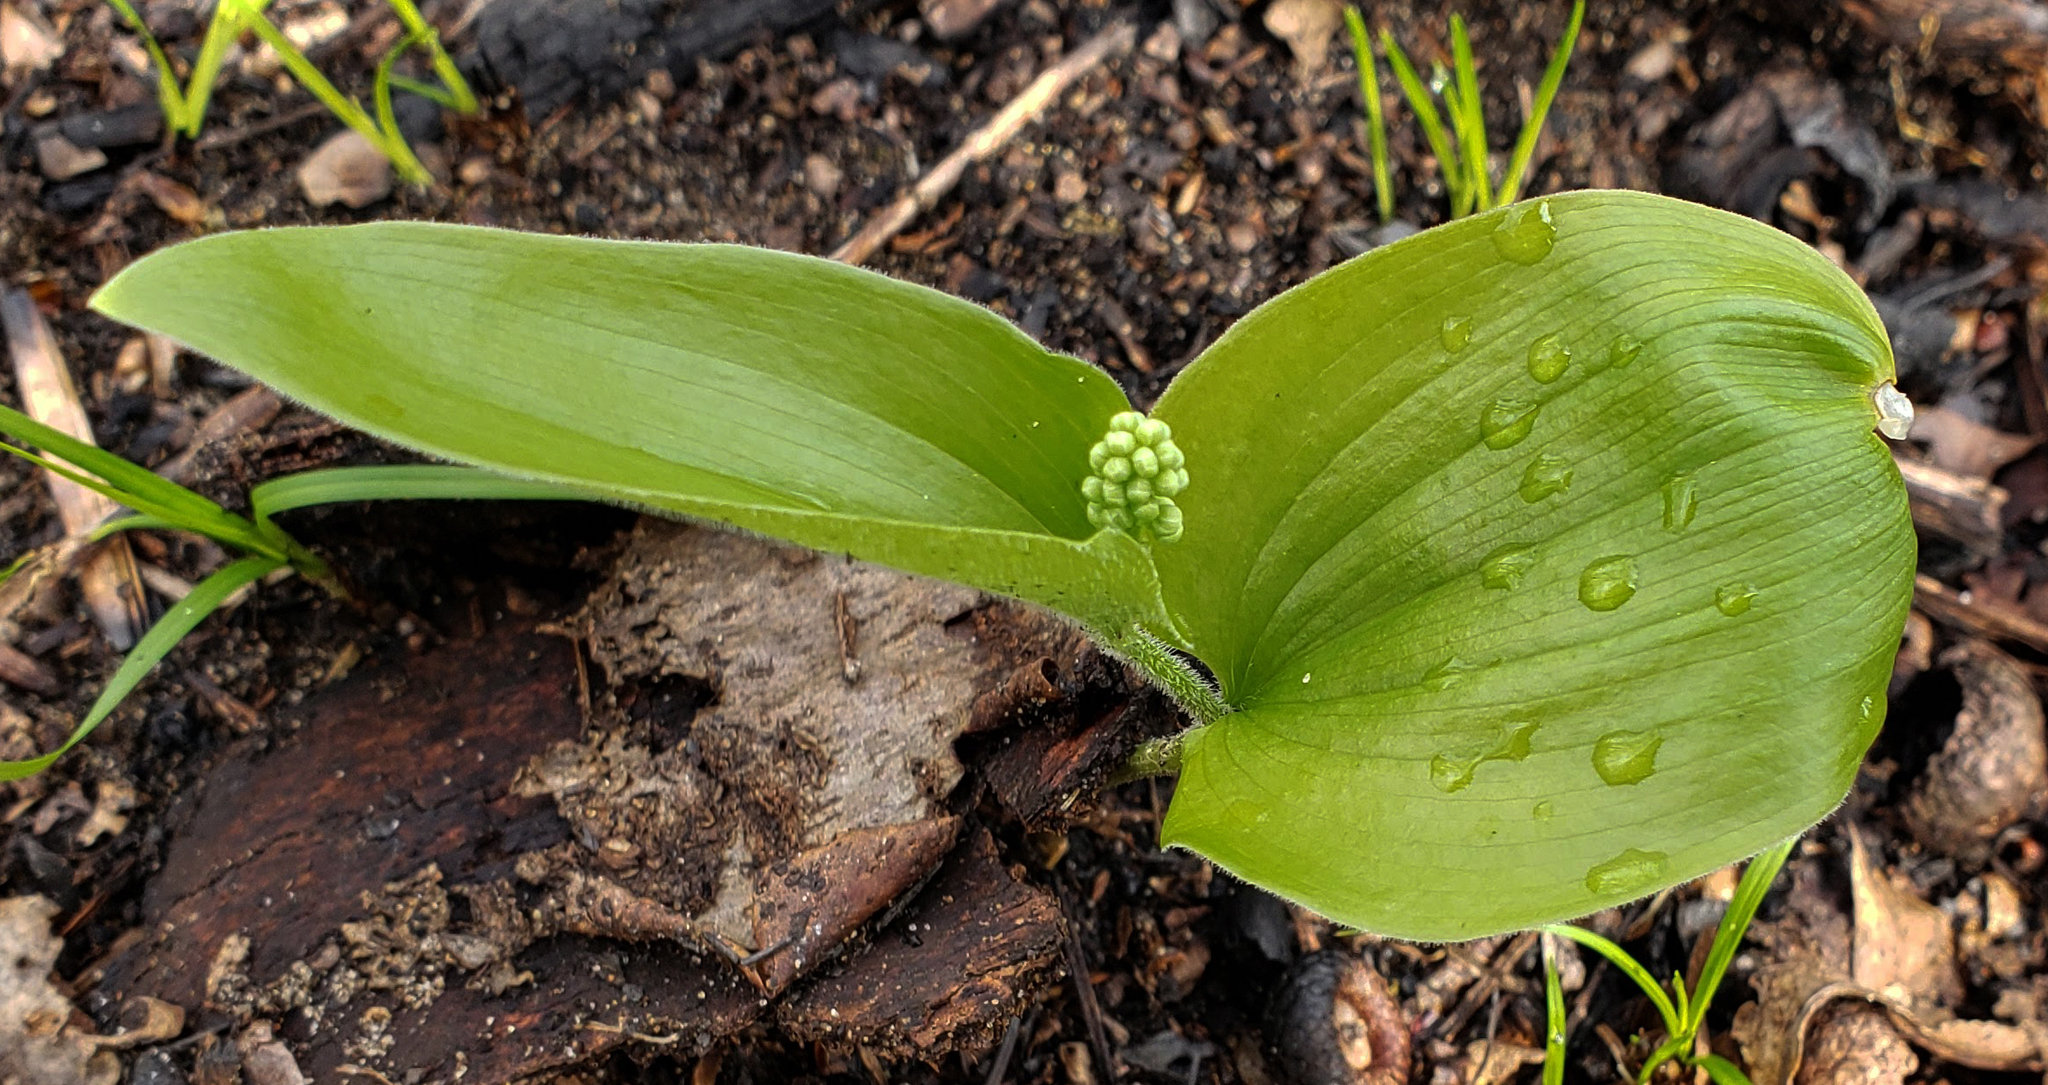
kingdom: Plantae
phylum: Tracheophyta
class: Liliopsida
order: Asparagales
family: Asparagaceae
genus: Maianthemum
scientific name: Maianthemum canadense
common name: False lily-of-the-valley
